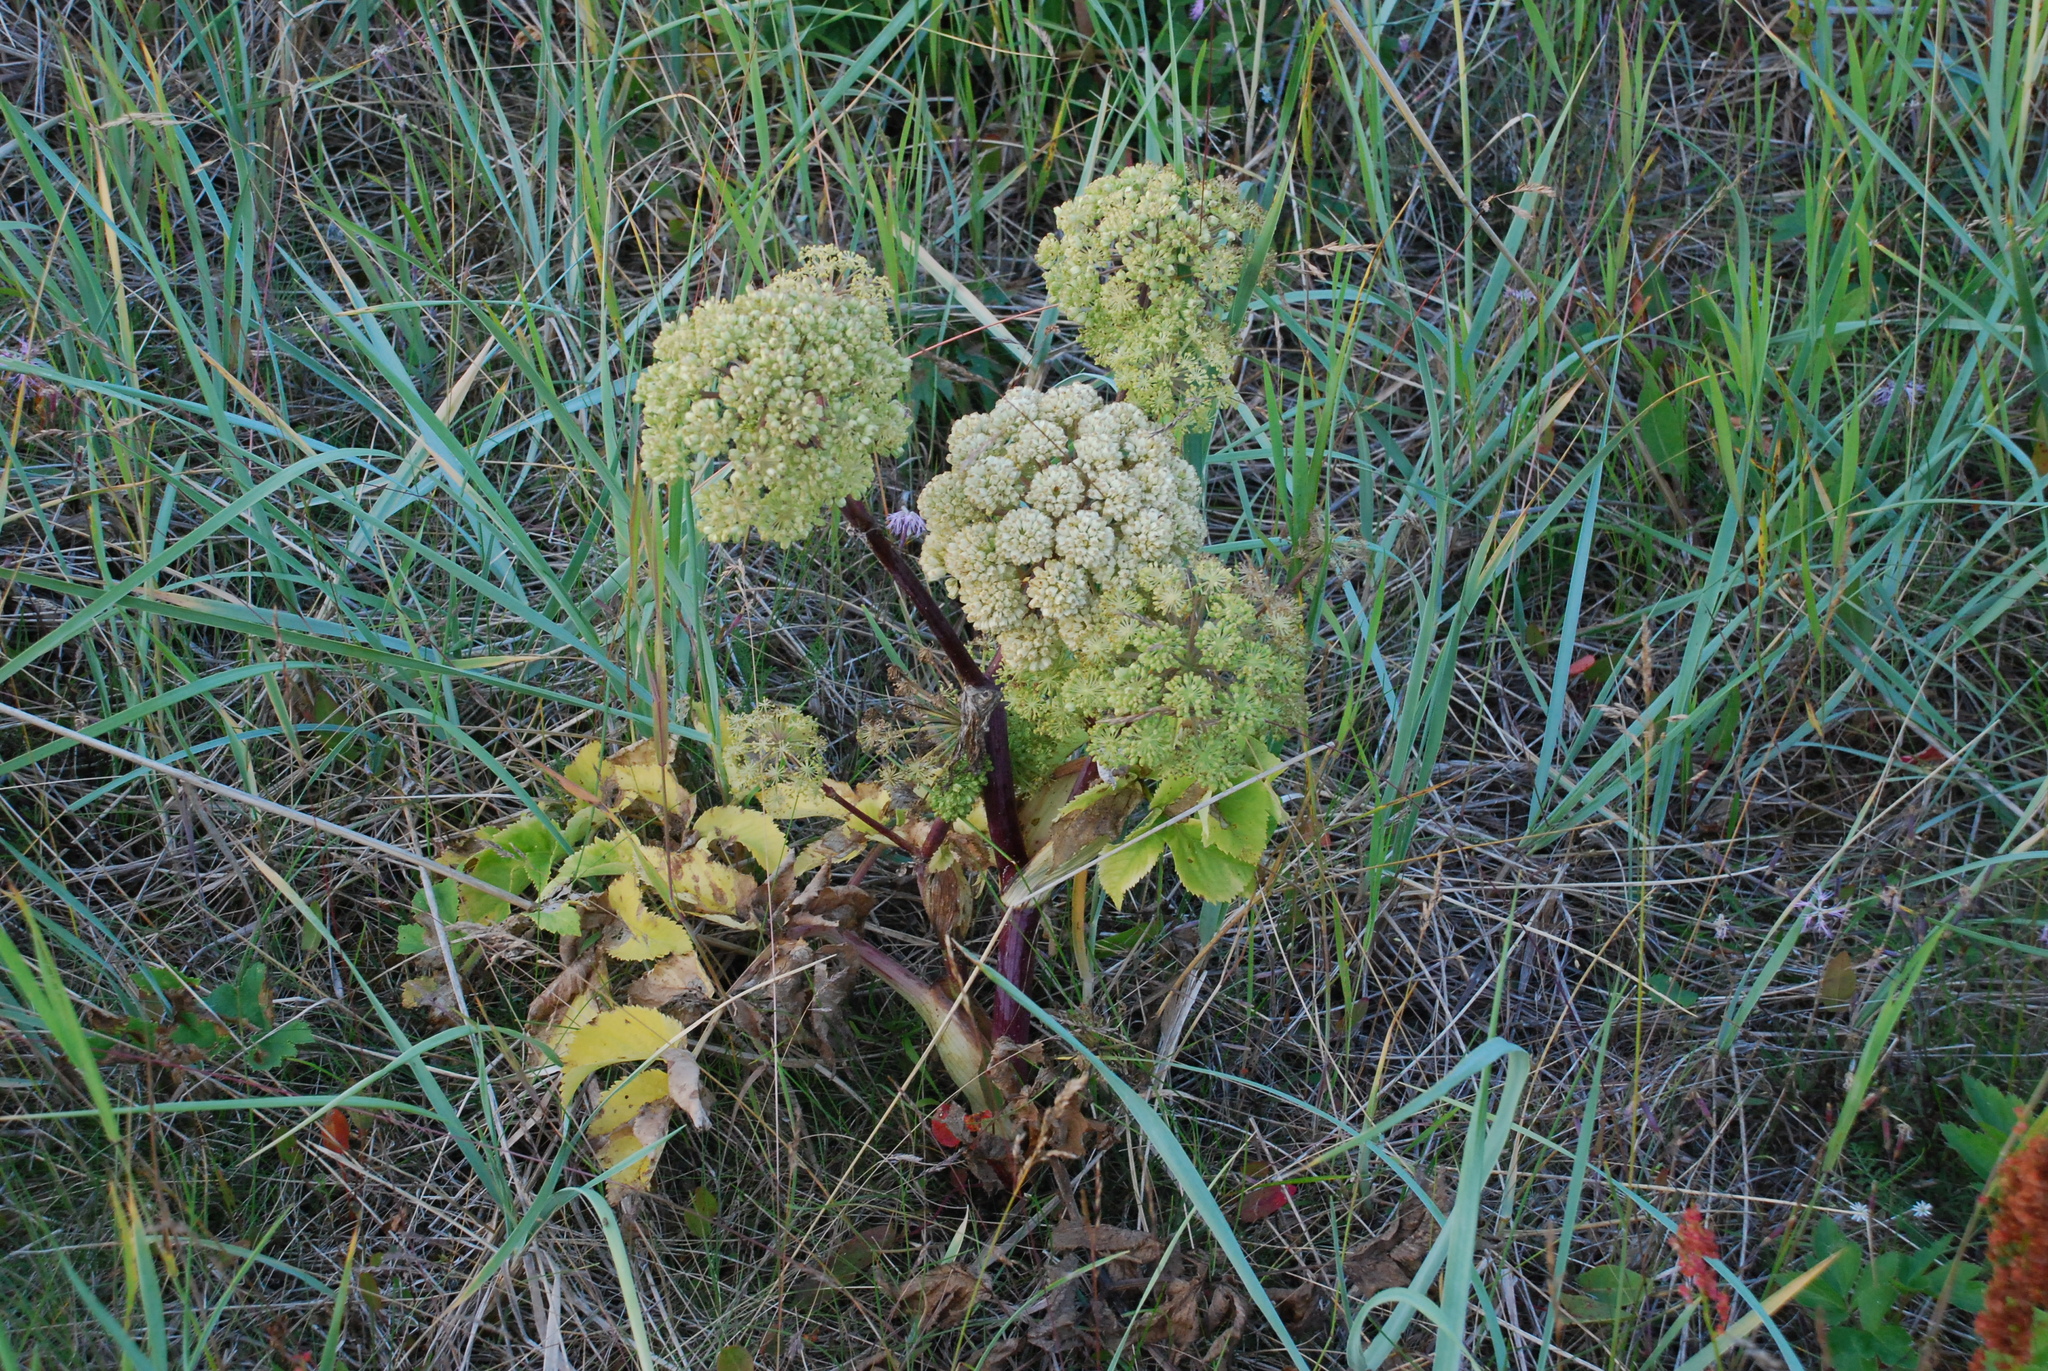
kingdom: Plantae
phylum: Tracheophyta
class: Magnoliopsida
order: Apiales
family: Apiaceae
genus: Angelica
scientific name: Angelica archangelica
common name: Garden angelica
